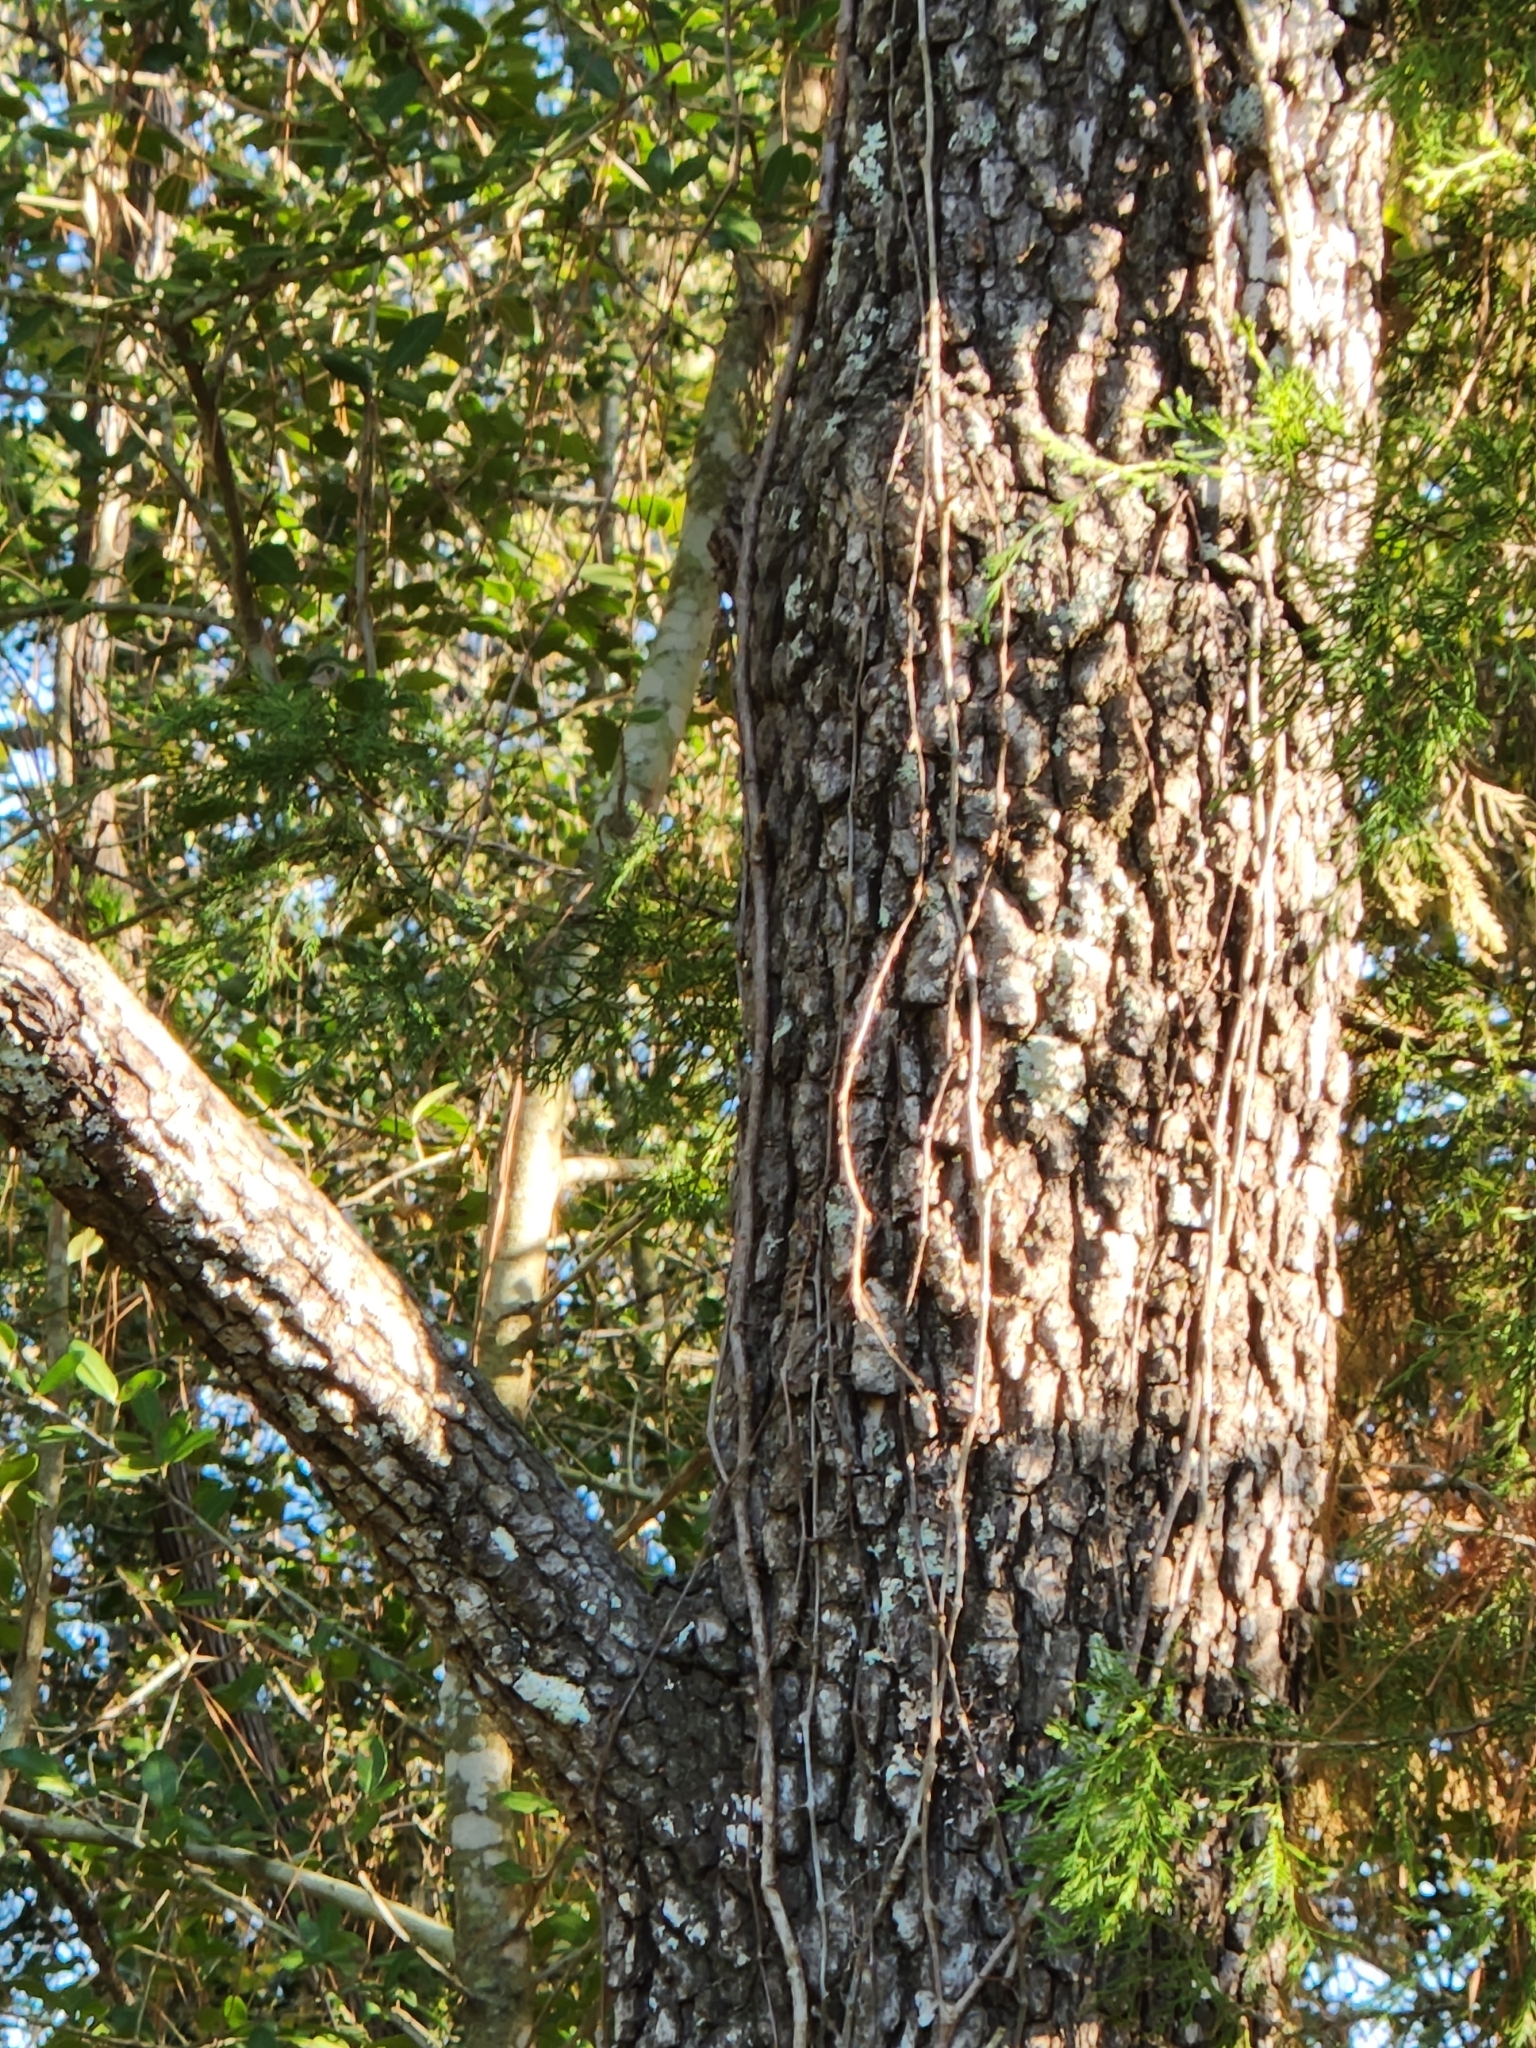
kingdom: Plantae
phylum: Tracheophyta
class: Magnoliopsida
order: Ericales
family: Ebenaceae
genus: Diospyros
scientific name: Diospyros virginiana
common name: Persimmon
